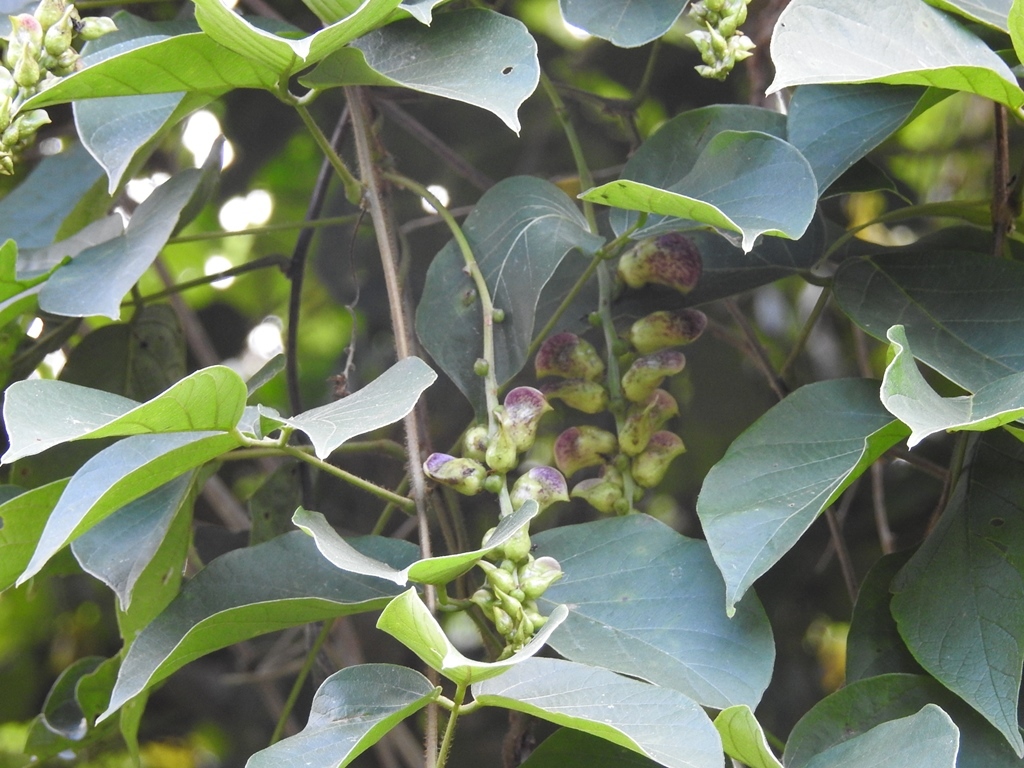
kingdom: Plantae
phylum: Tracheophyta
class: Magnoliopsida
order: Fabales
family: Fabaceae
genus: Canavalia
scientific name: Canavalia oxyphylla
